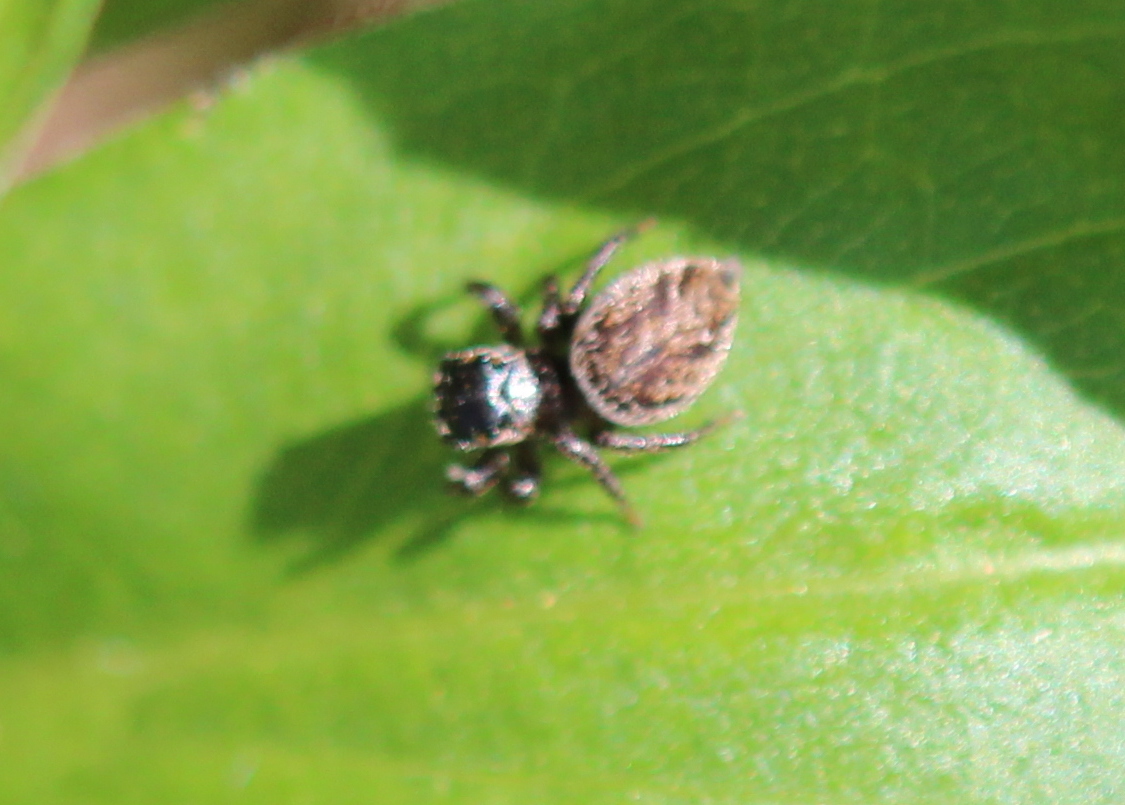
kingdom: Animalia
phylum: Arthropoda
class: Arachnida
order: Araneae
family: Salticidae
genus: Evarcha
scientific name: Evarcha hoyi
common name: Hoy's jumping spider
